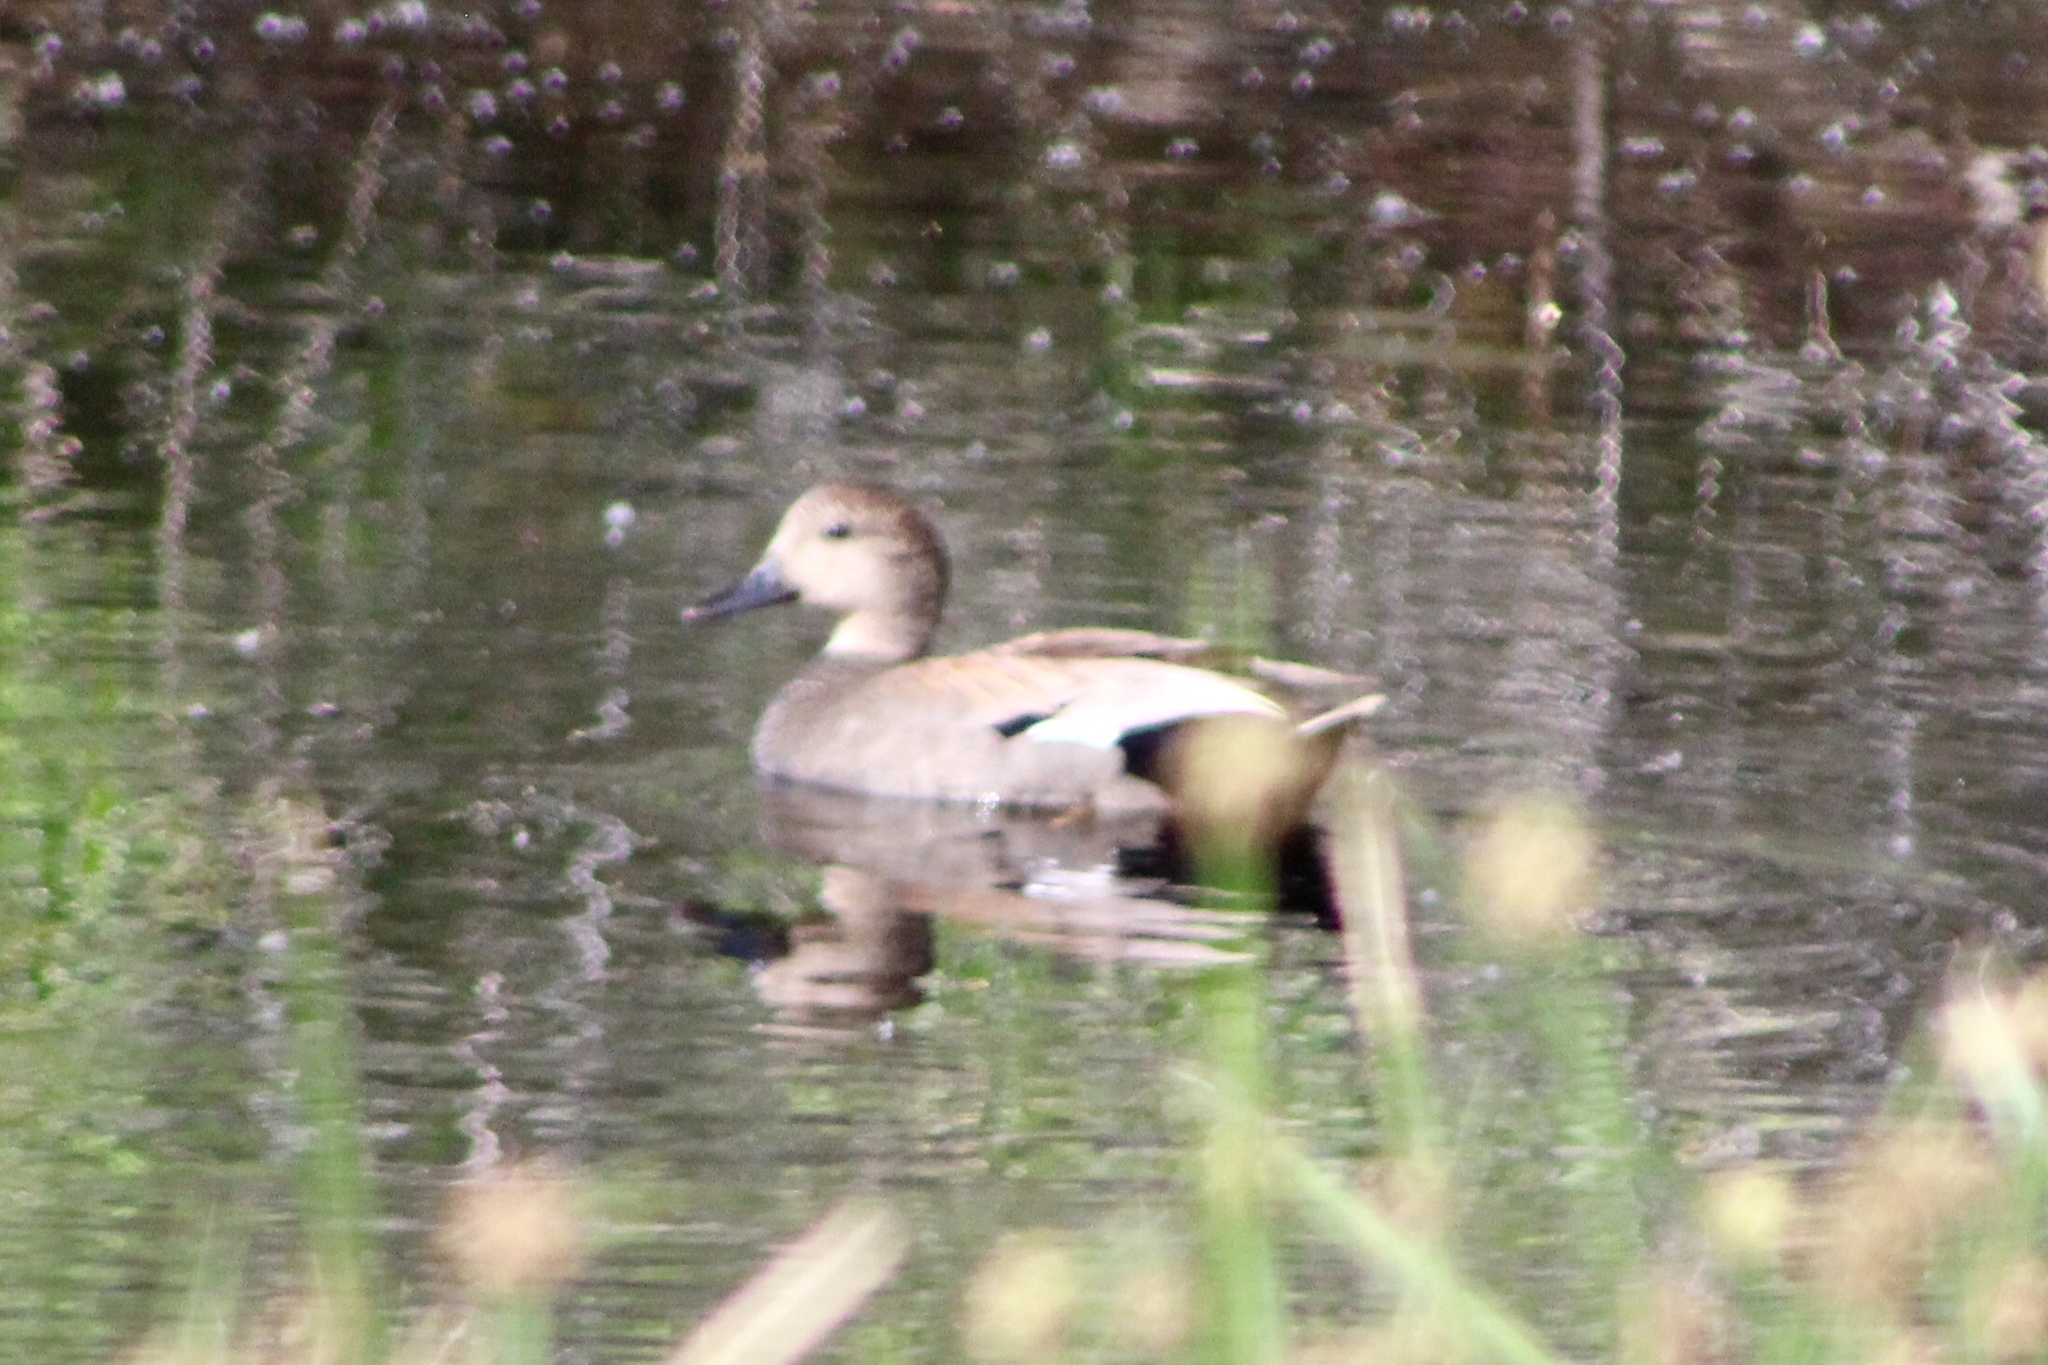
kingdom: Animalia
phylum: Chordata
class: Aves
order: Anseriformes
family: Anatidae
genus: Mareca
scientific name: Mareca strepera
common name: Gadwall
